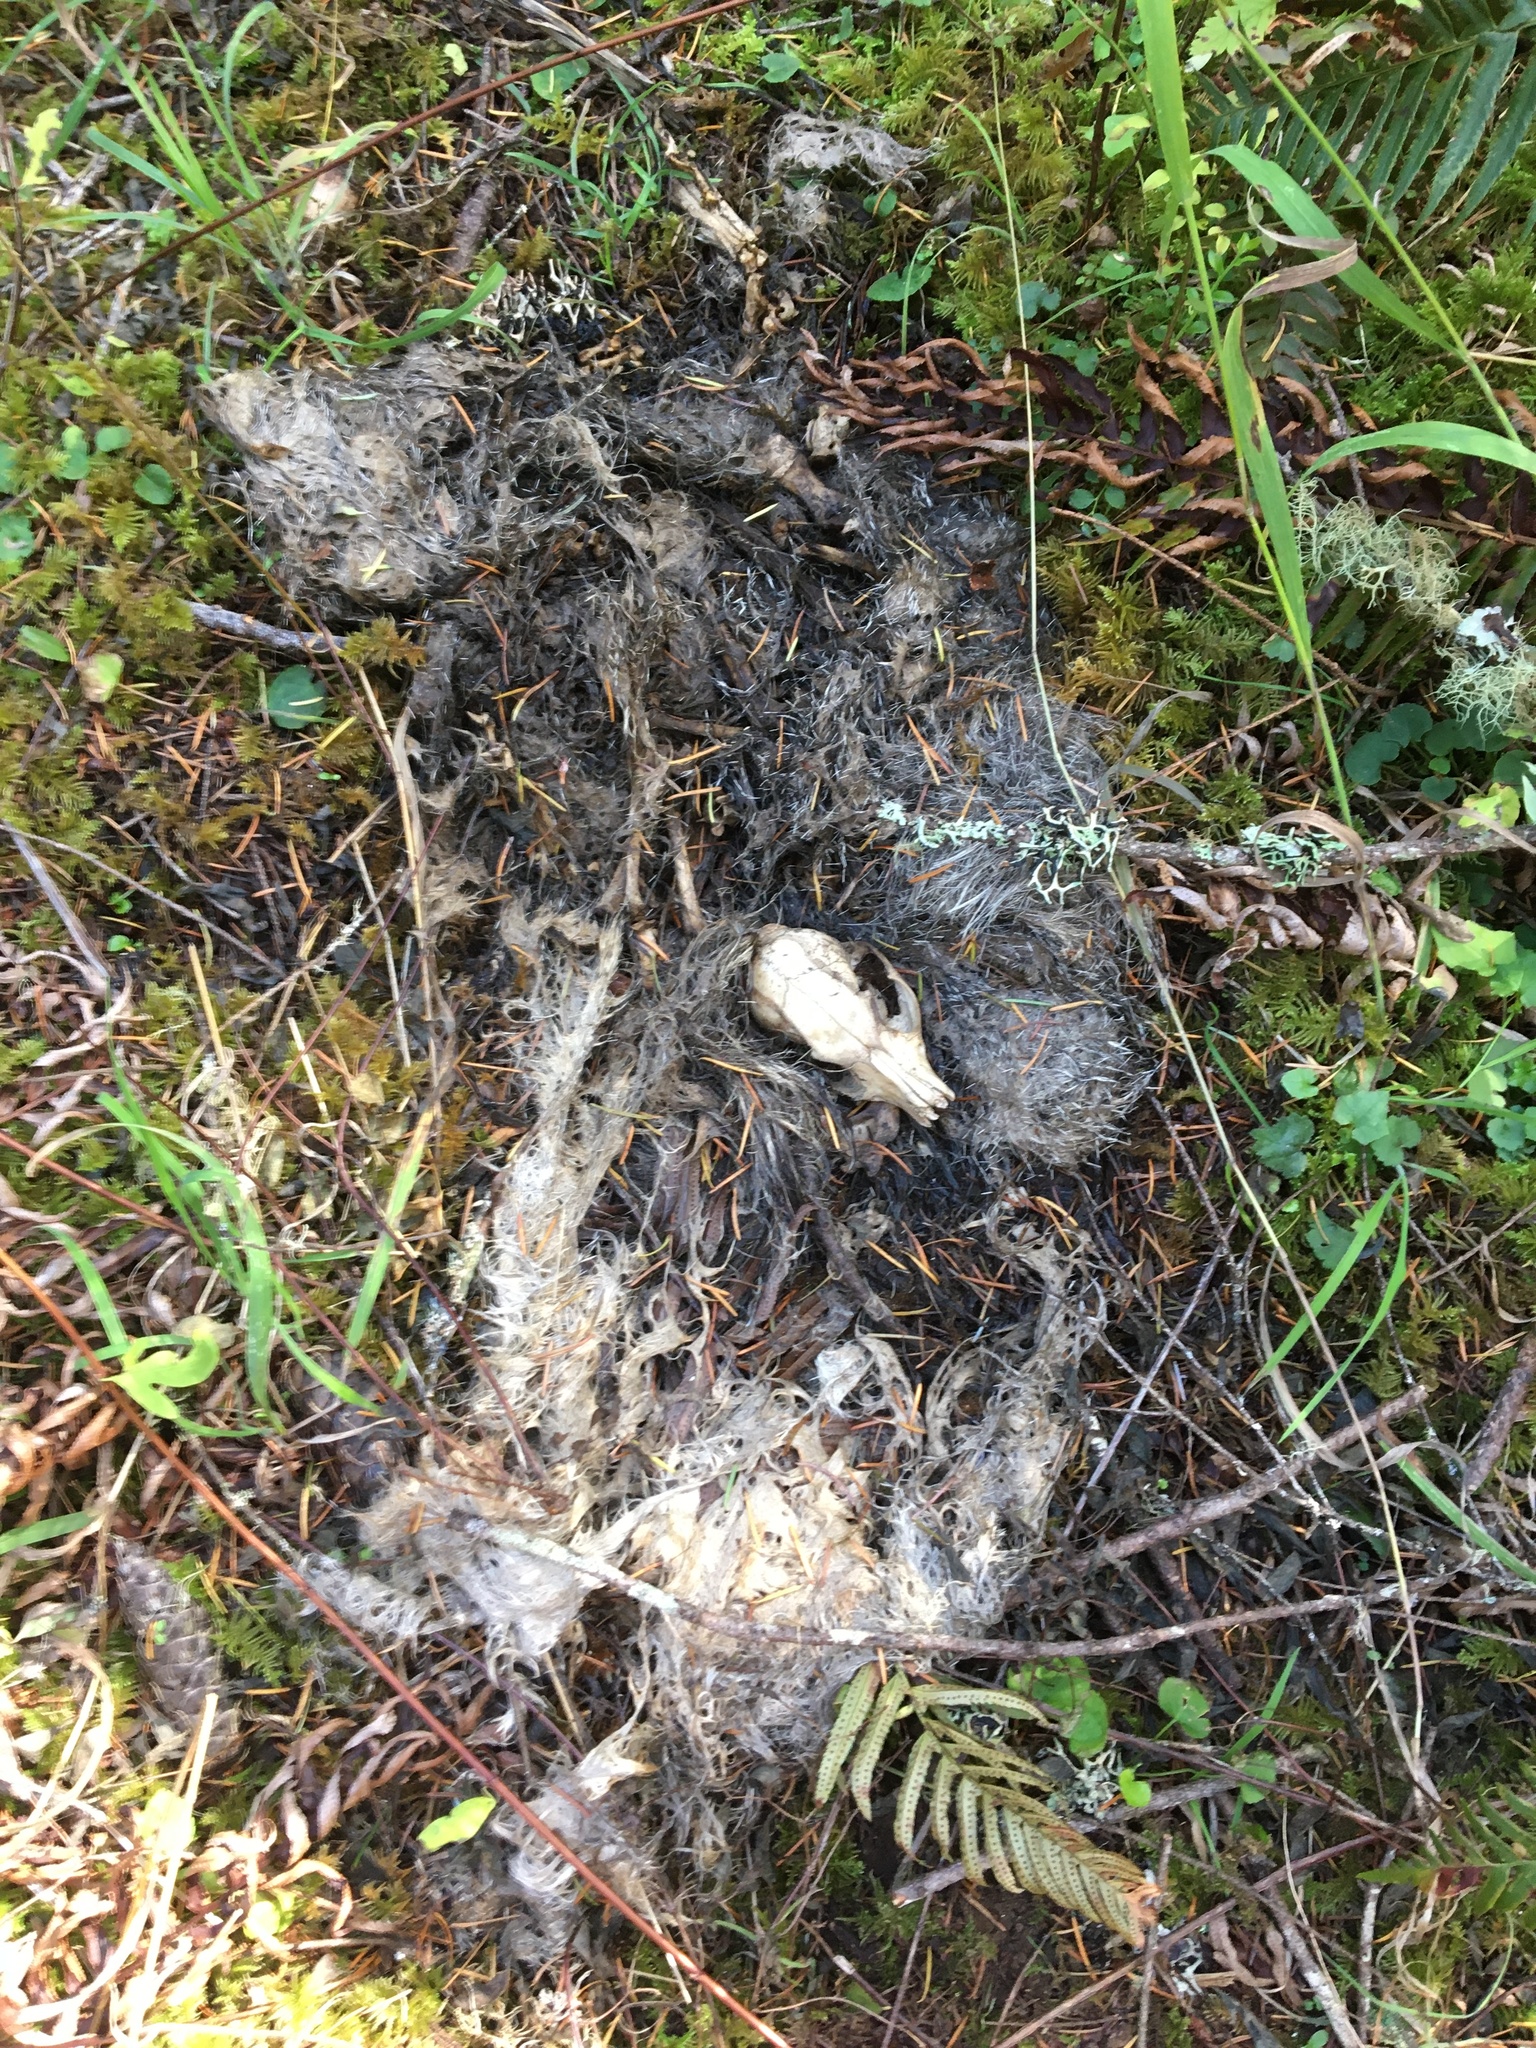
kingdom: Animalia
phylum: Chordata
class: Mammalia
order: Carnivora
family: Canidae
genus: Urocyon
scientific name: Urocyon cinereoargenteus
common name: Gray fox
